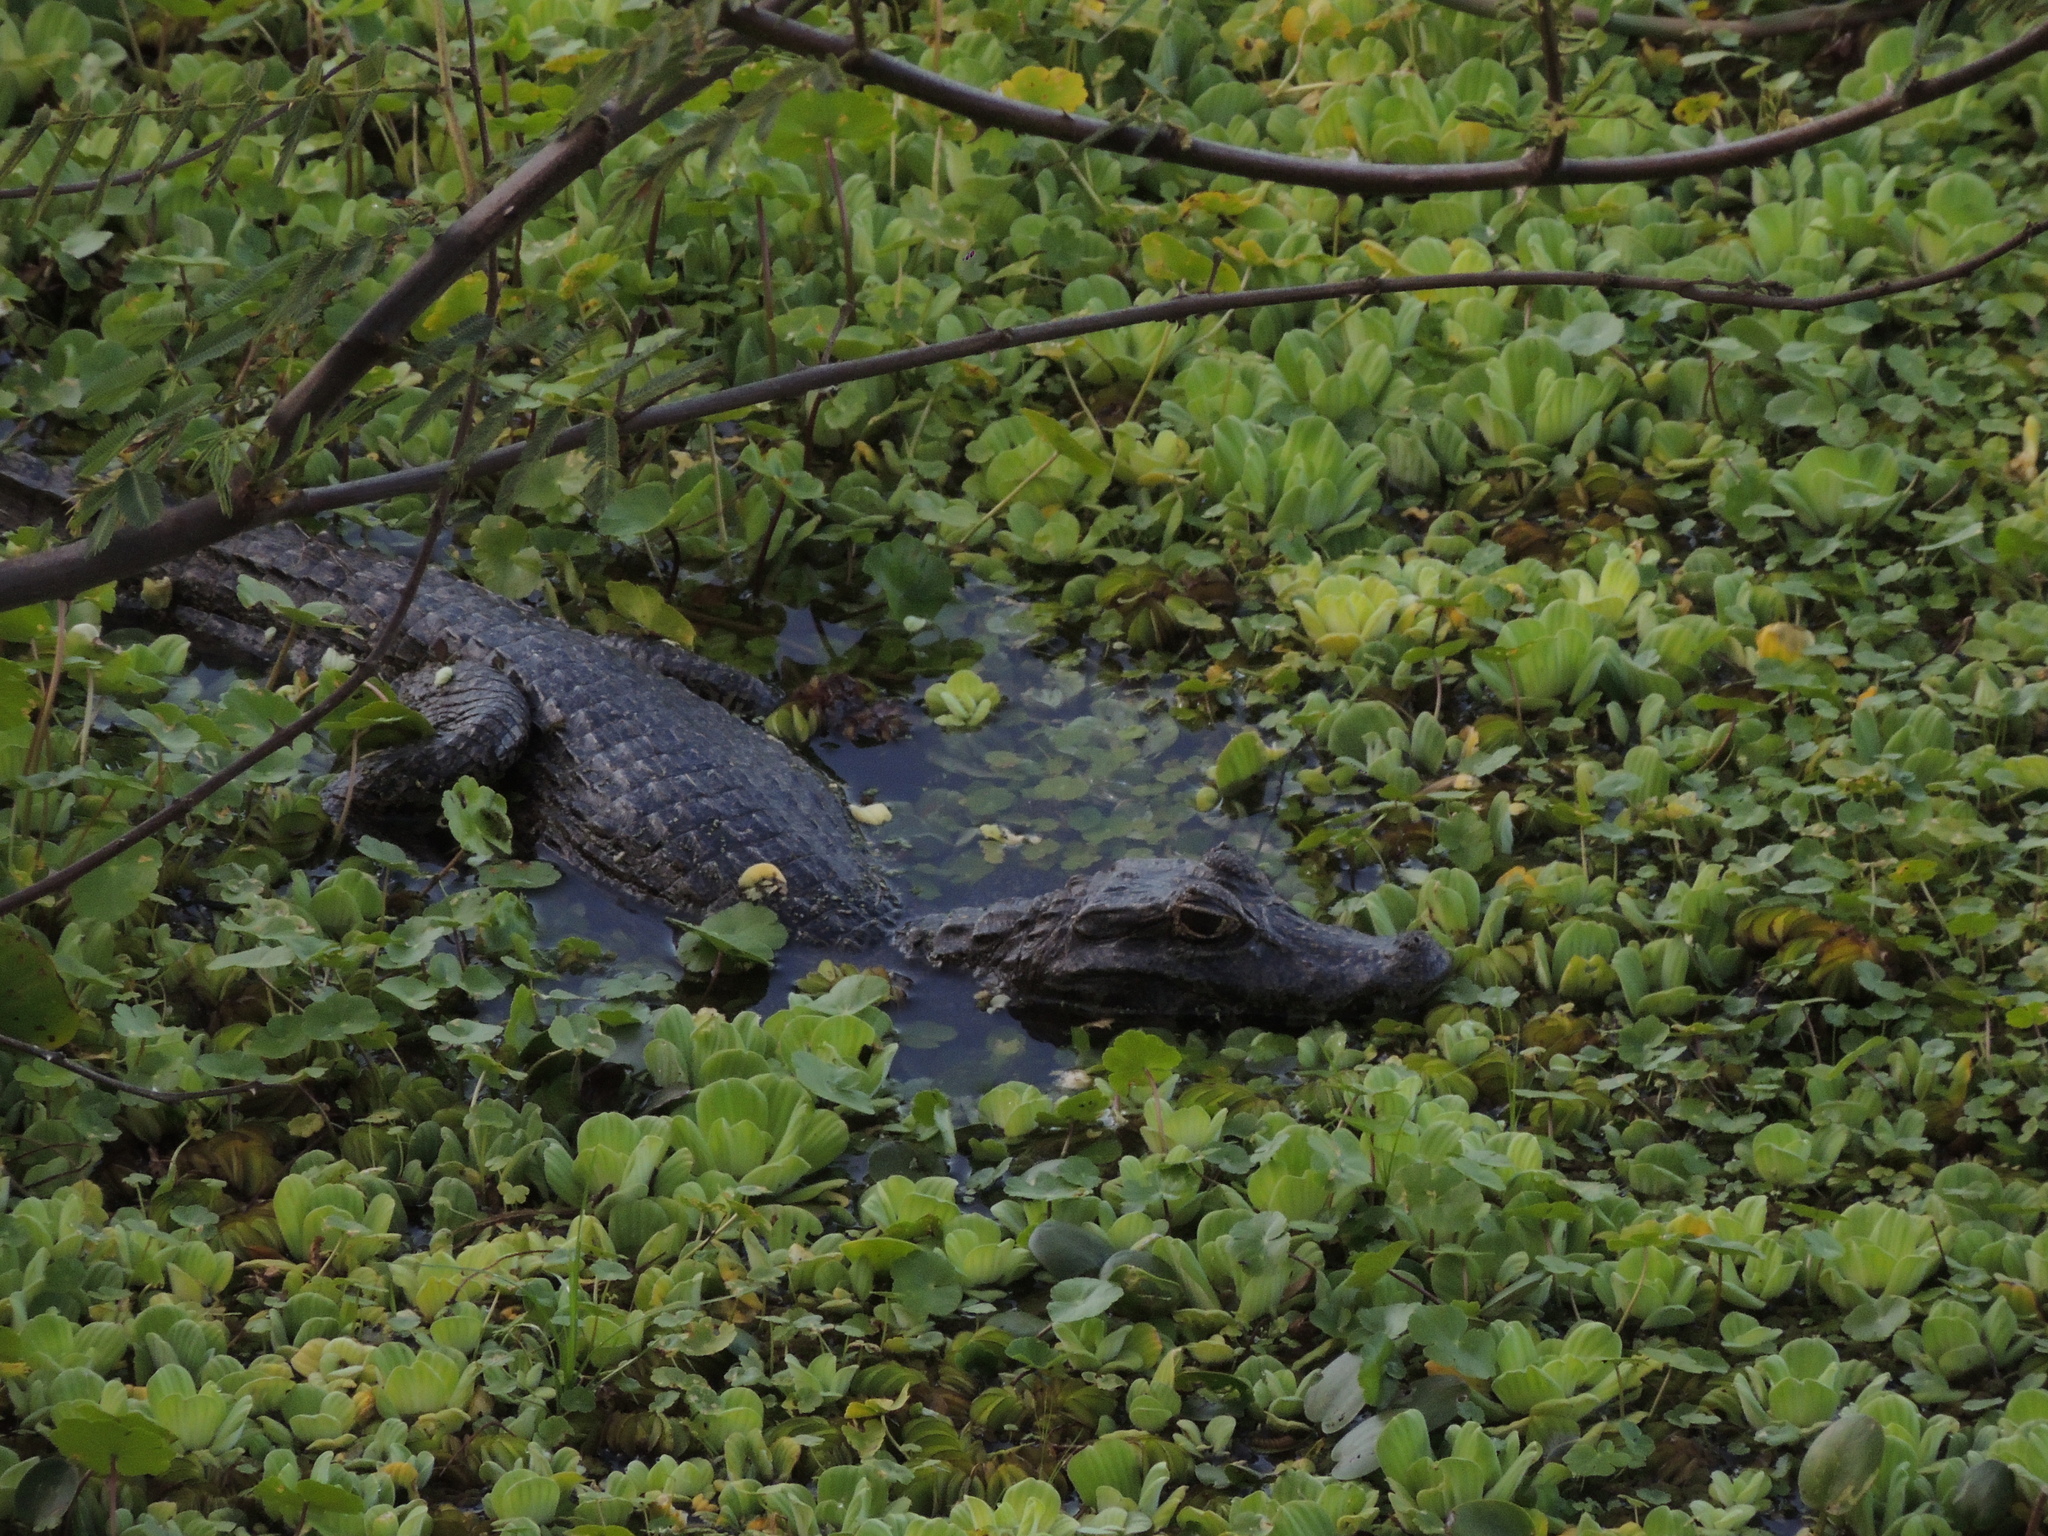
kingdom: Animalia
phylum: Chordata
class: Crocodylia
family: Alligatoridae
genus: Caiman
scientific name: Caiman yacare
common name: Yacare caiman
